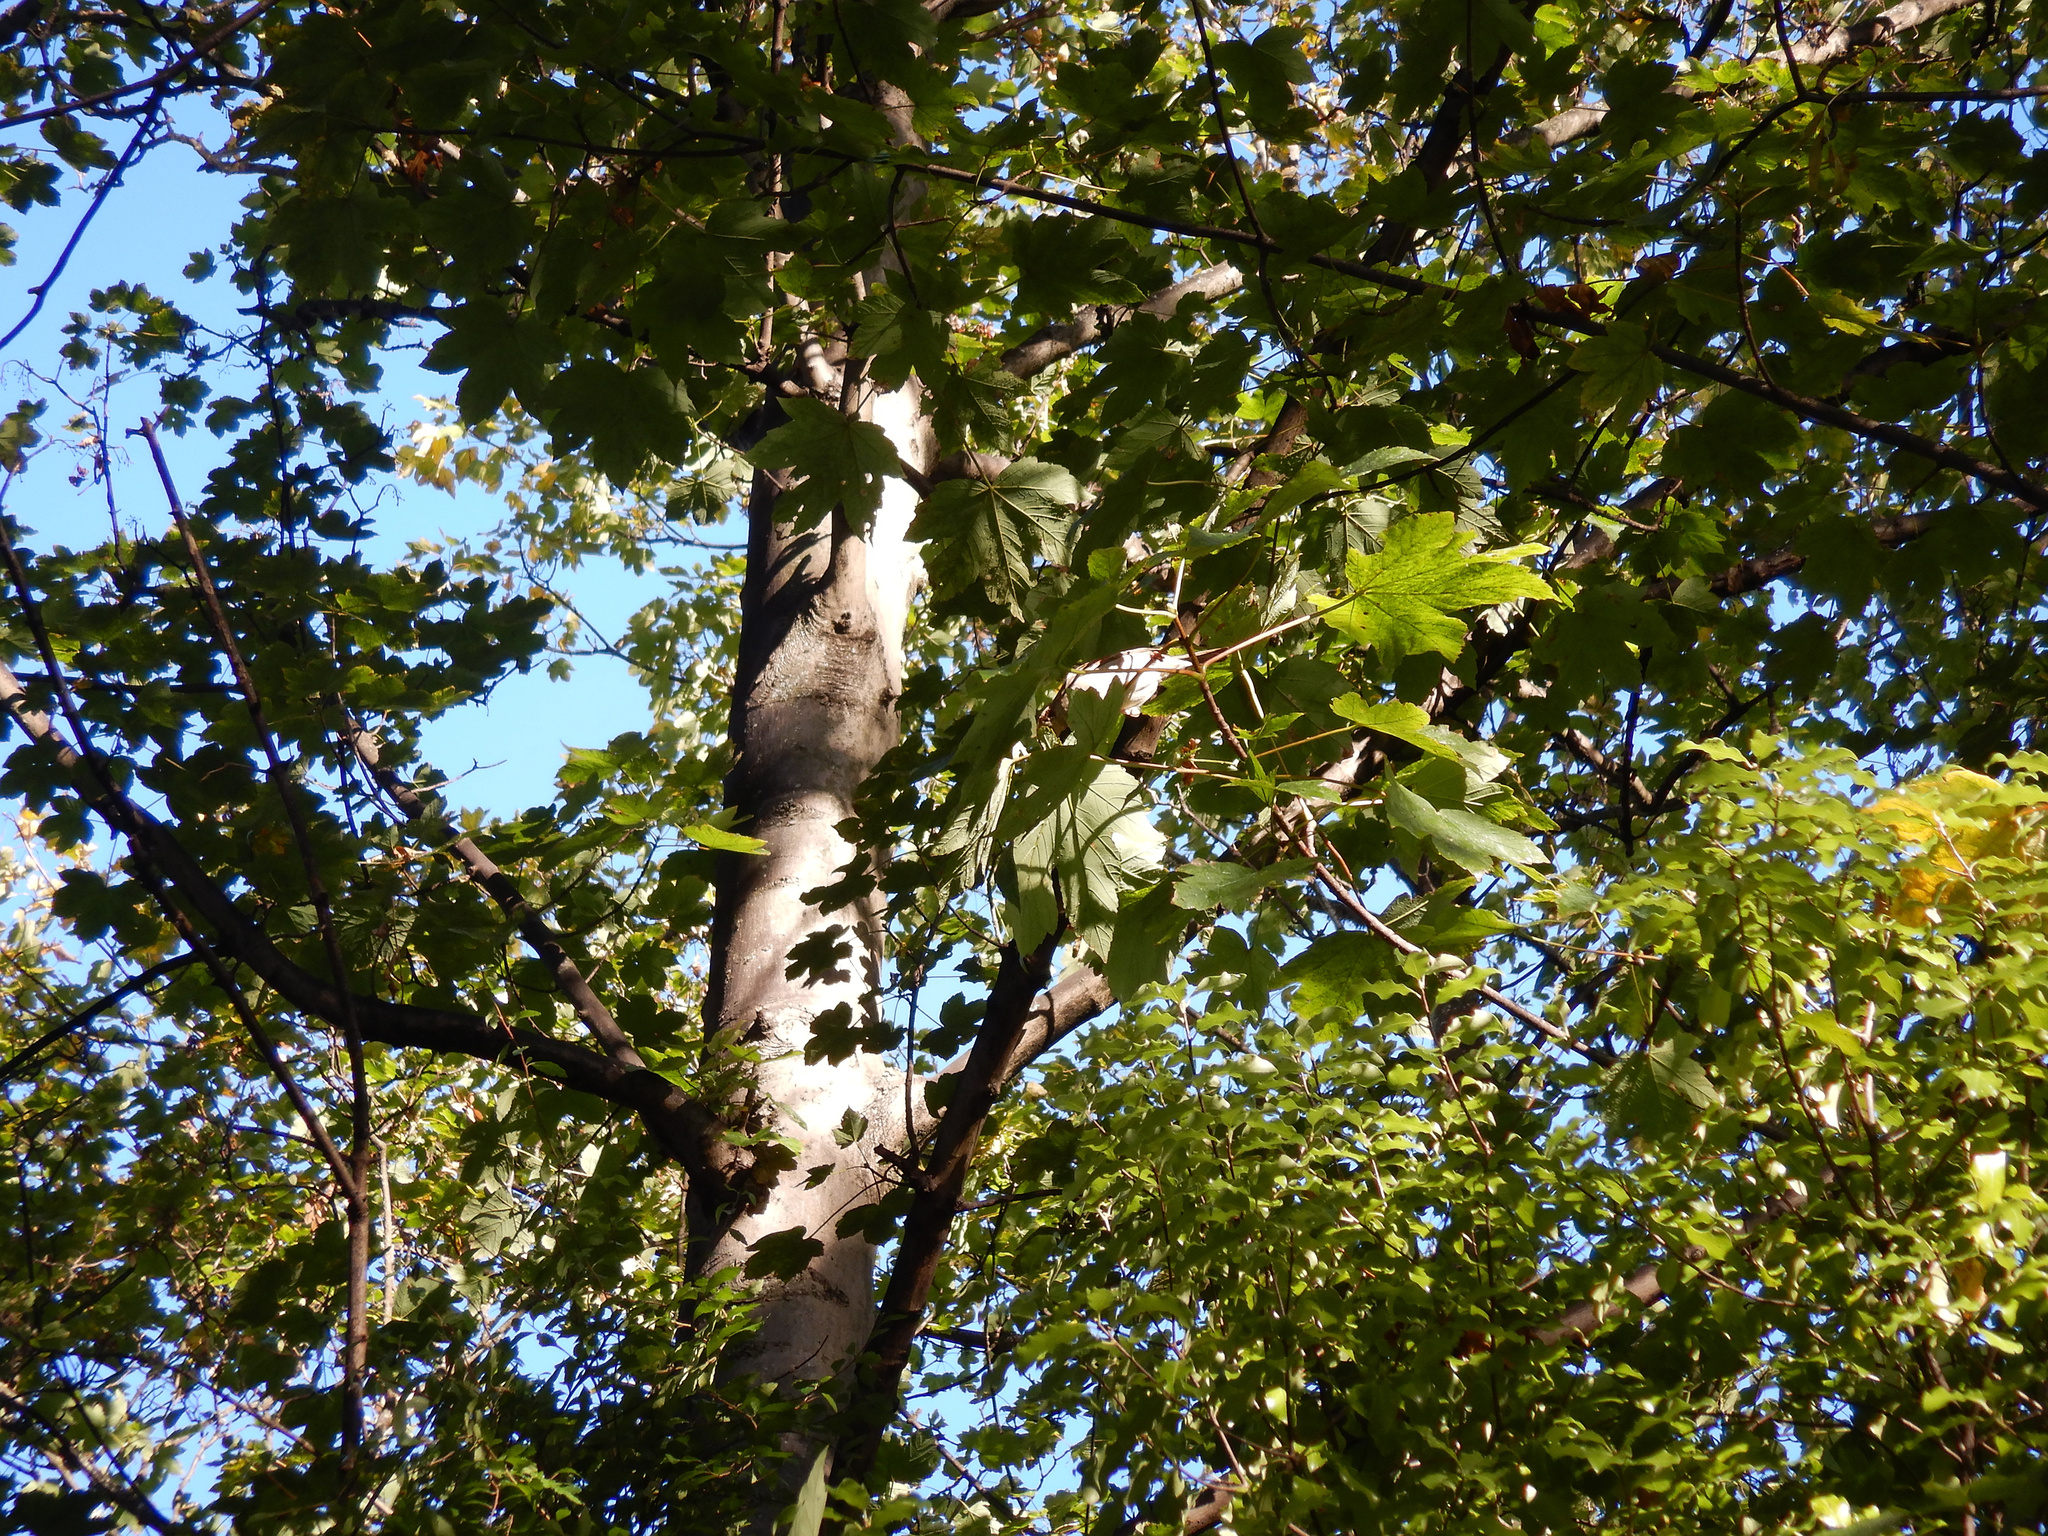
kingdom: Plantae
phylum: Tracheophyta
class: Magnoliopsida
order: Sapindales
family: Sapindaceae
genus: Acer
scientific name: Acer pseudoplatanus
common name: Sycamore
